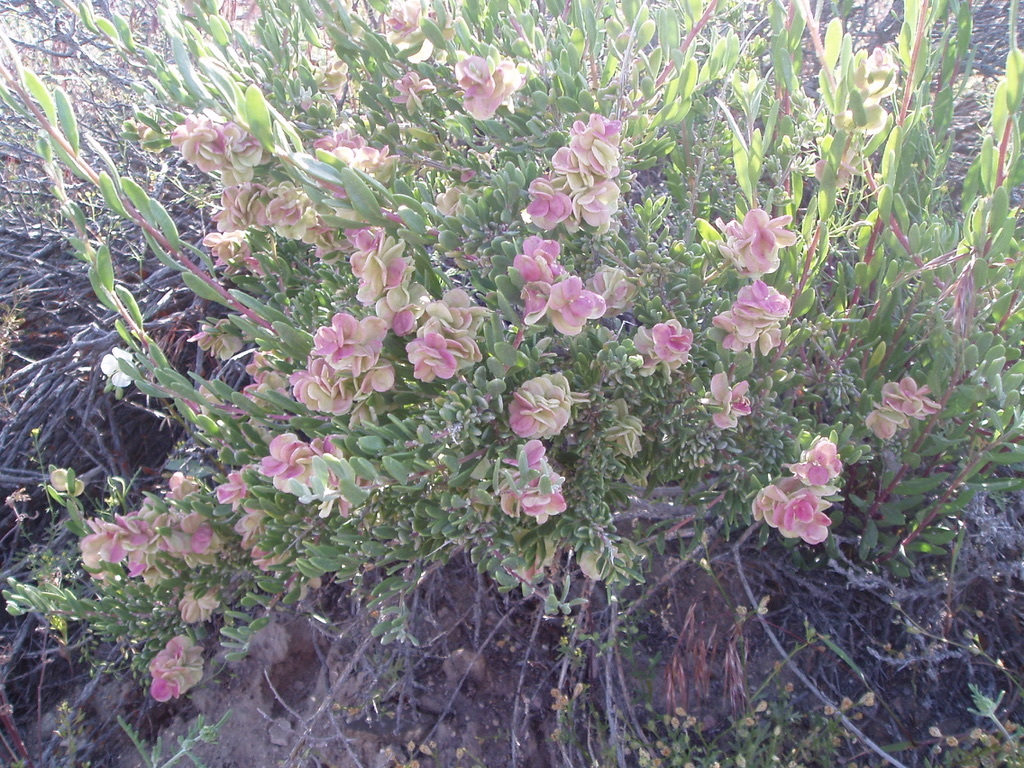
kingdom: Plantae
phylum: Tracheophyta
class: Magnoliopsida
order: Caryophyllales
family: Amaranthaceae
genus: Grayia
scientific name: Grayia spinosa
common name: Spiny hopsage
